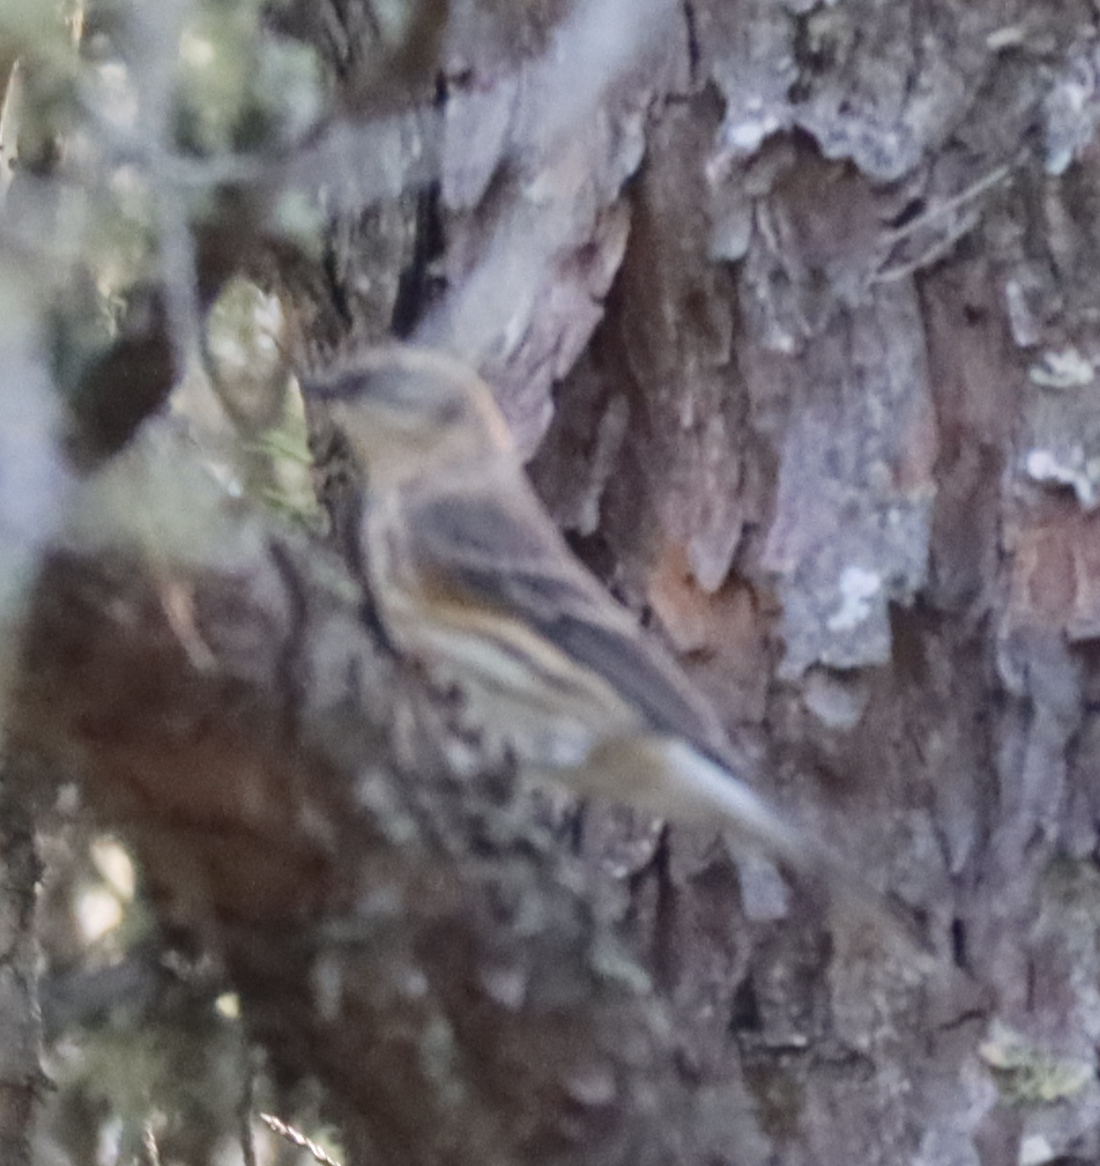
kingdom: Animalia
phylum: Chordata
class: Aves
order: Passeriformes
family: Parulidae
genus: Setophaga
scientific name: Setophaga coronata
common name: Myrtle warbler
